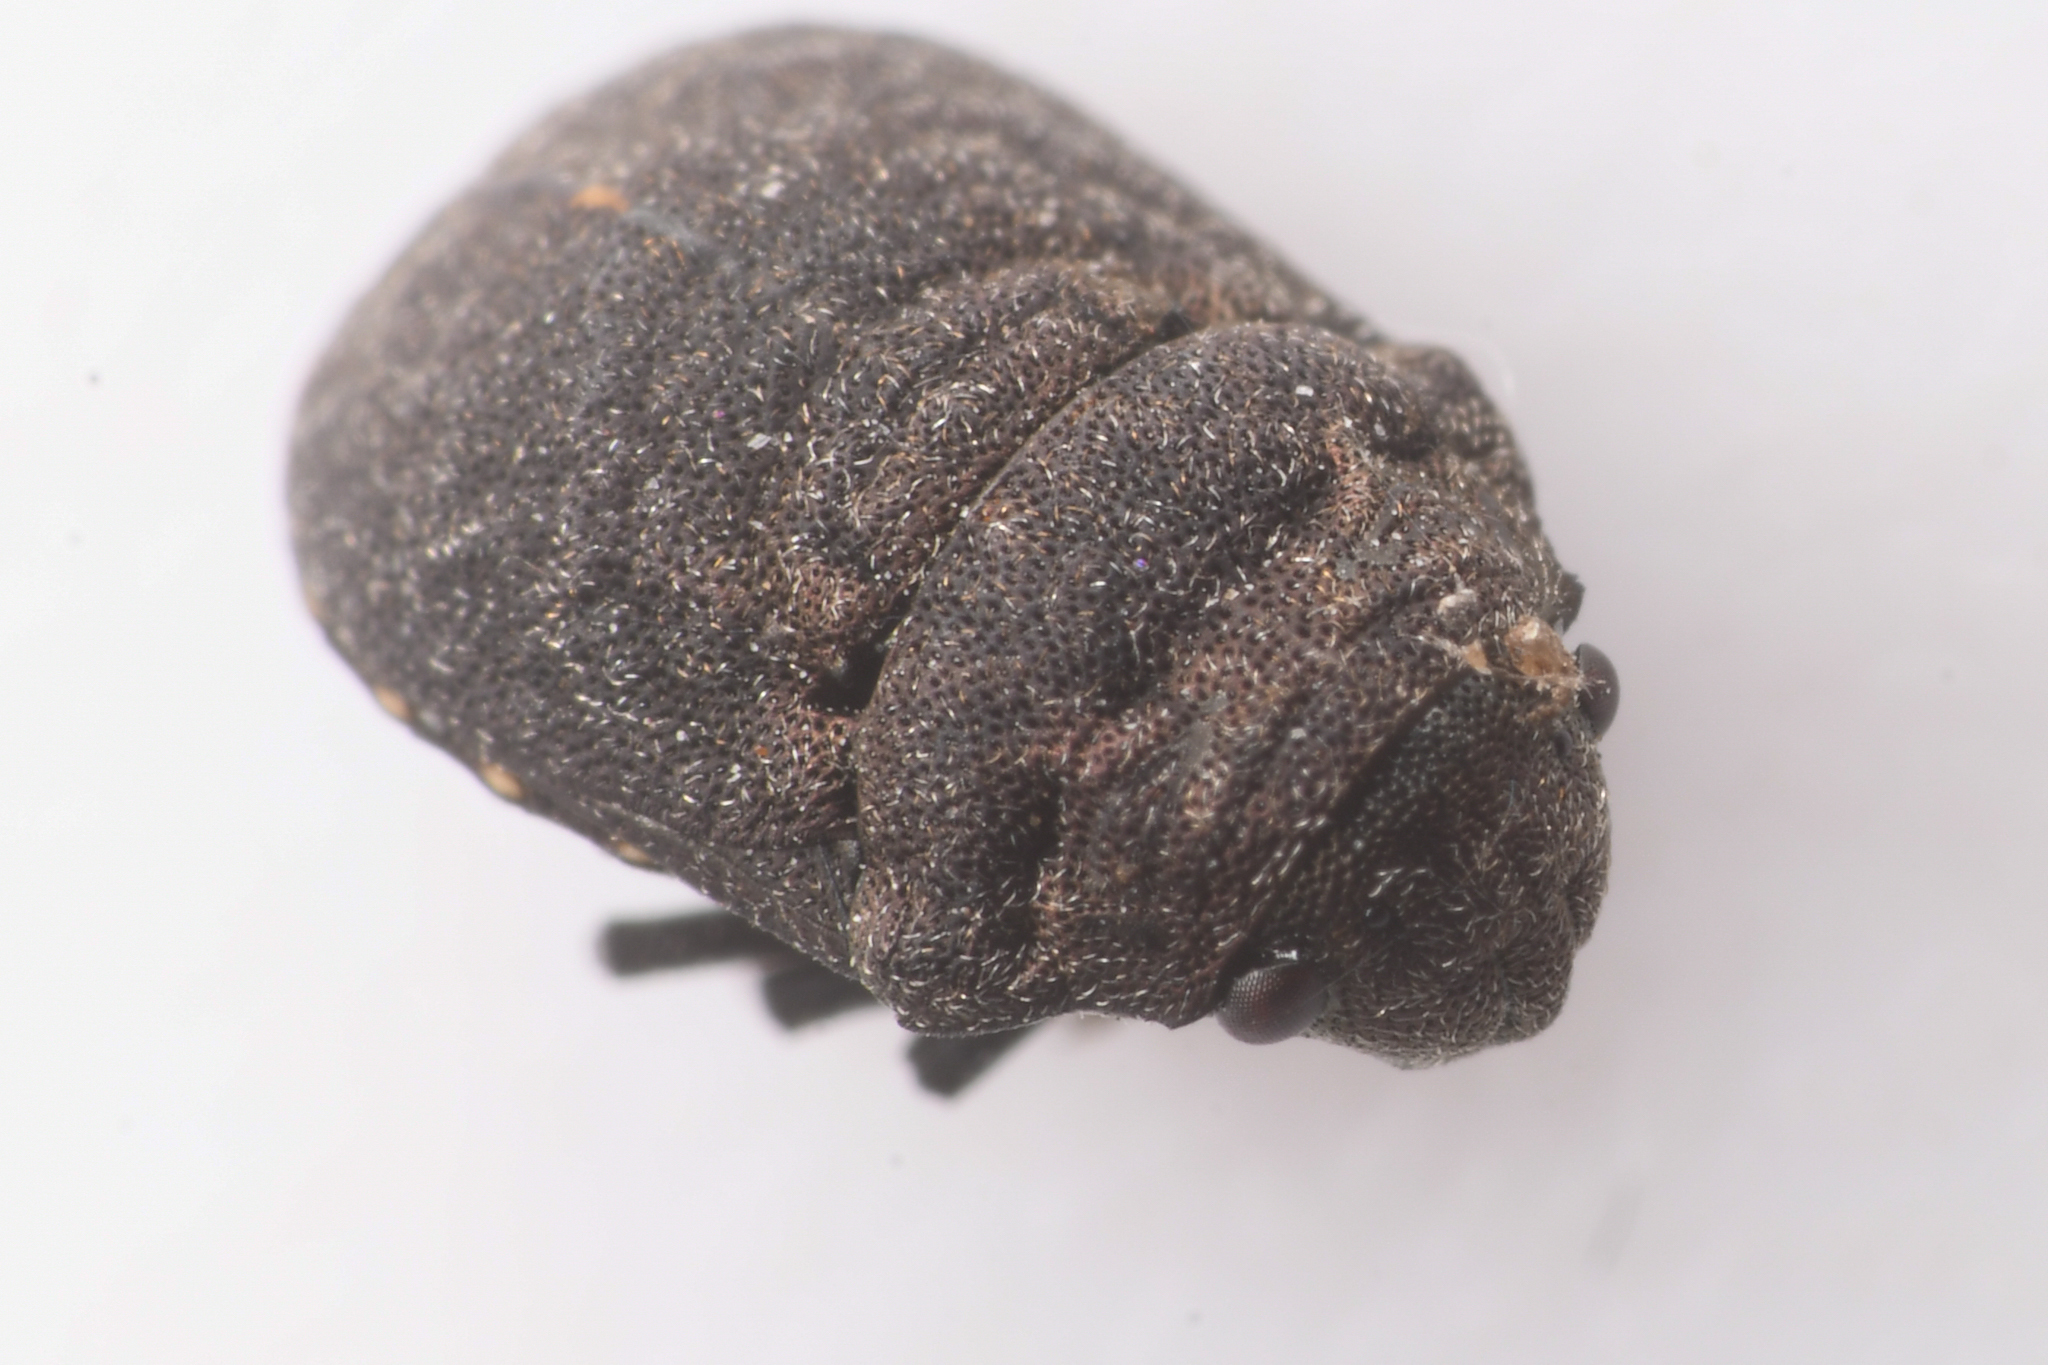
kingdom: Animalia
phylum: Arthropoda
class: Insecta
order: Hemiptera
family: Scutelleridae
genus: Camirus
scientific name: Camirus porosus
